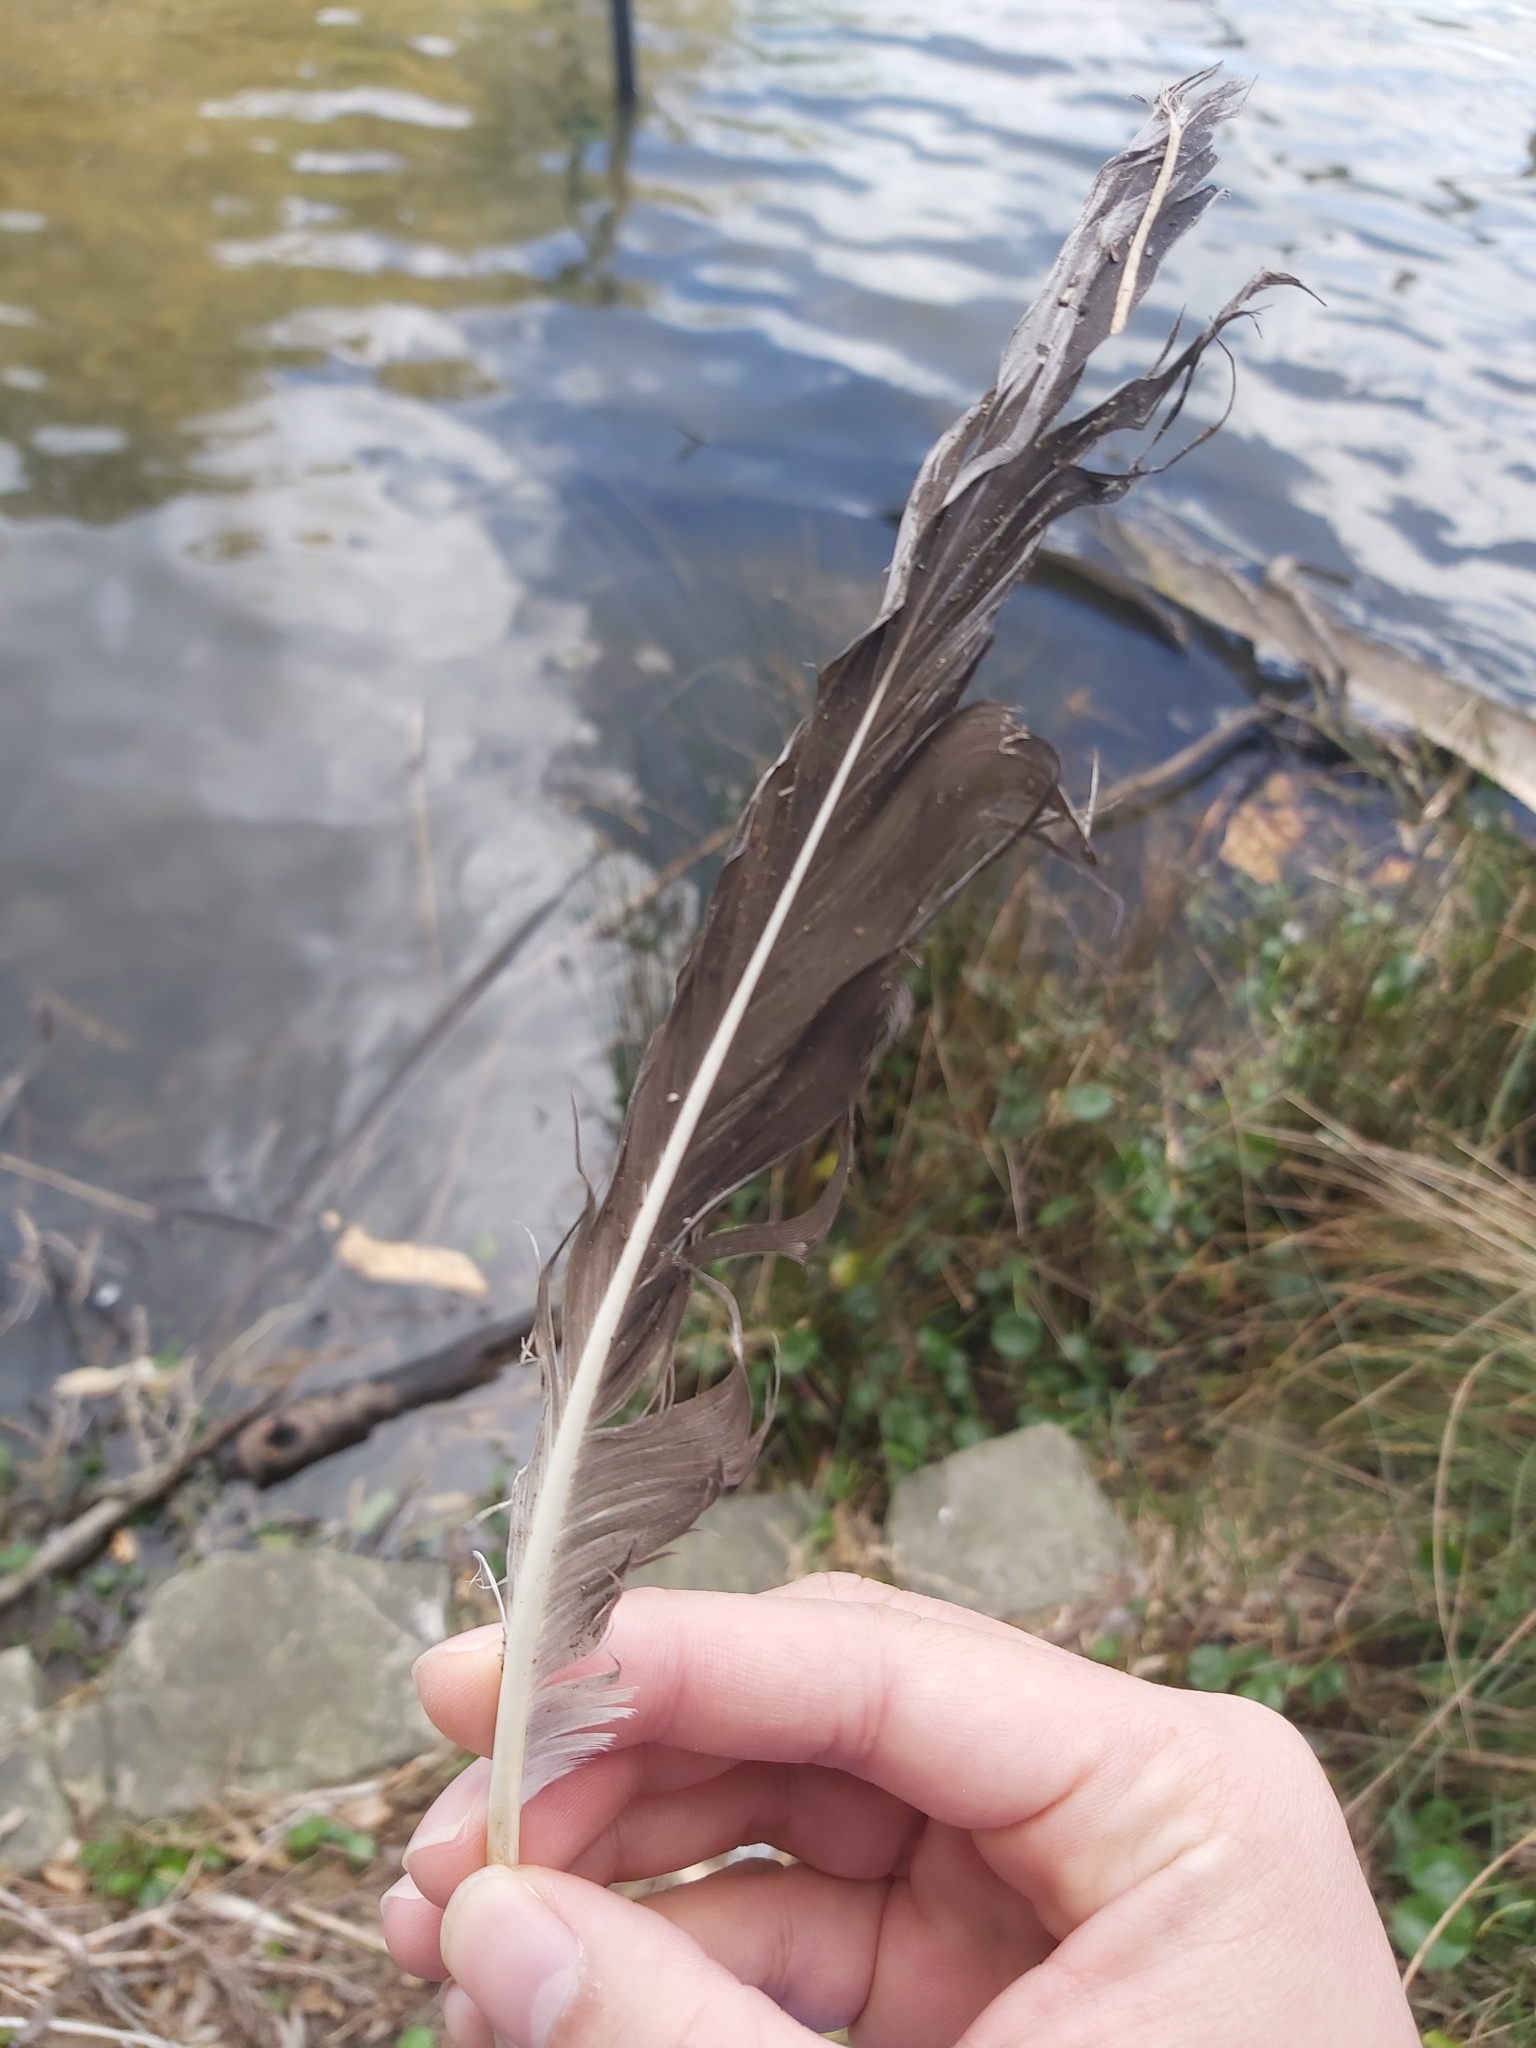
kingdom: Animalia
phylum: Chordata
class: Aves
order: Anseriformes
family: Anatidae
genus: Cygnus
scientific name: Cygnus atratus
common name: Black swan
